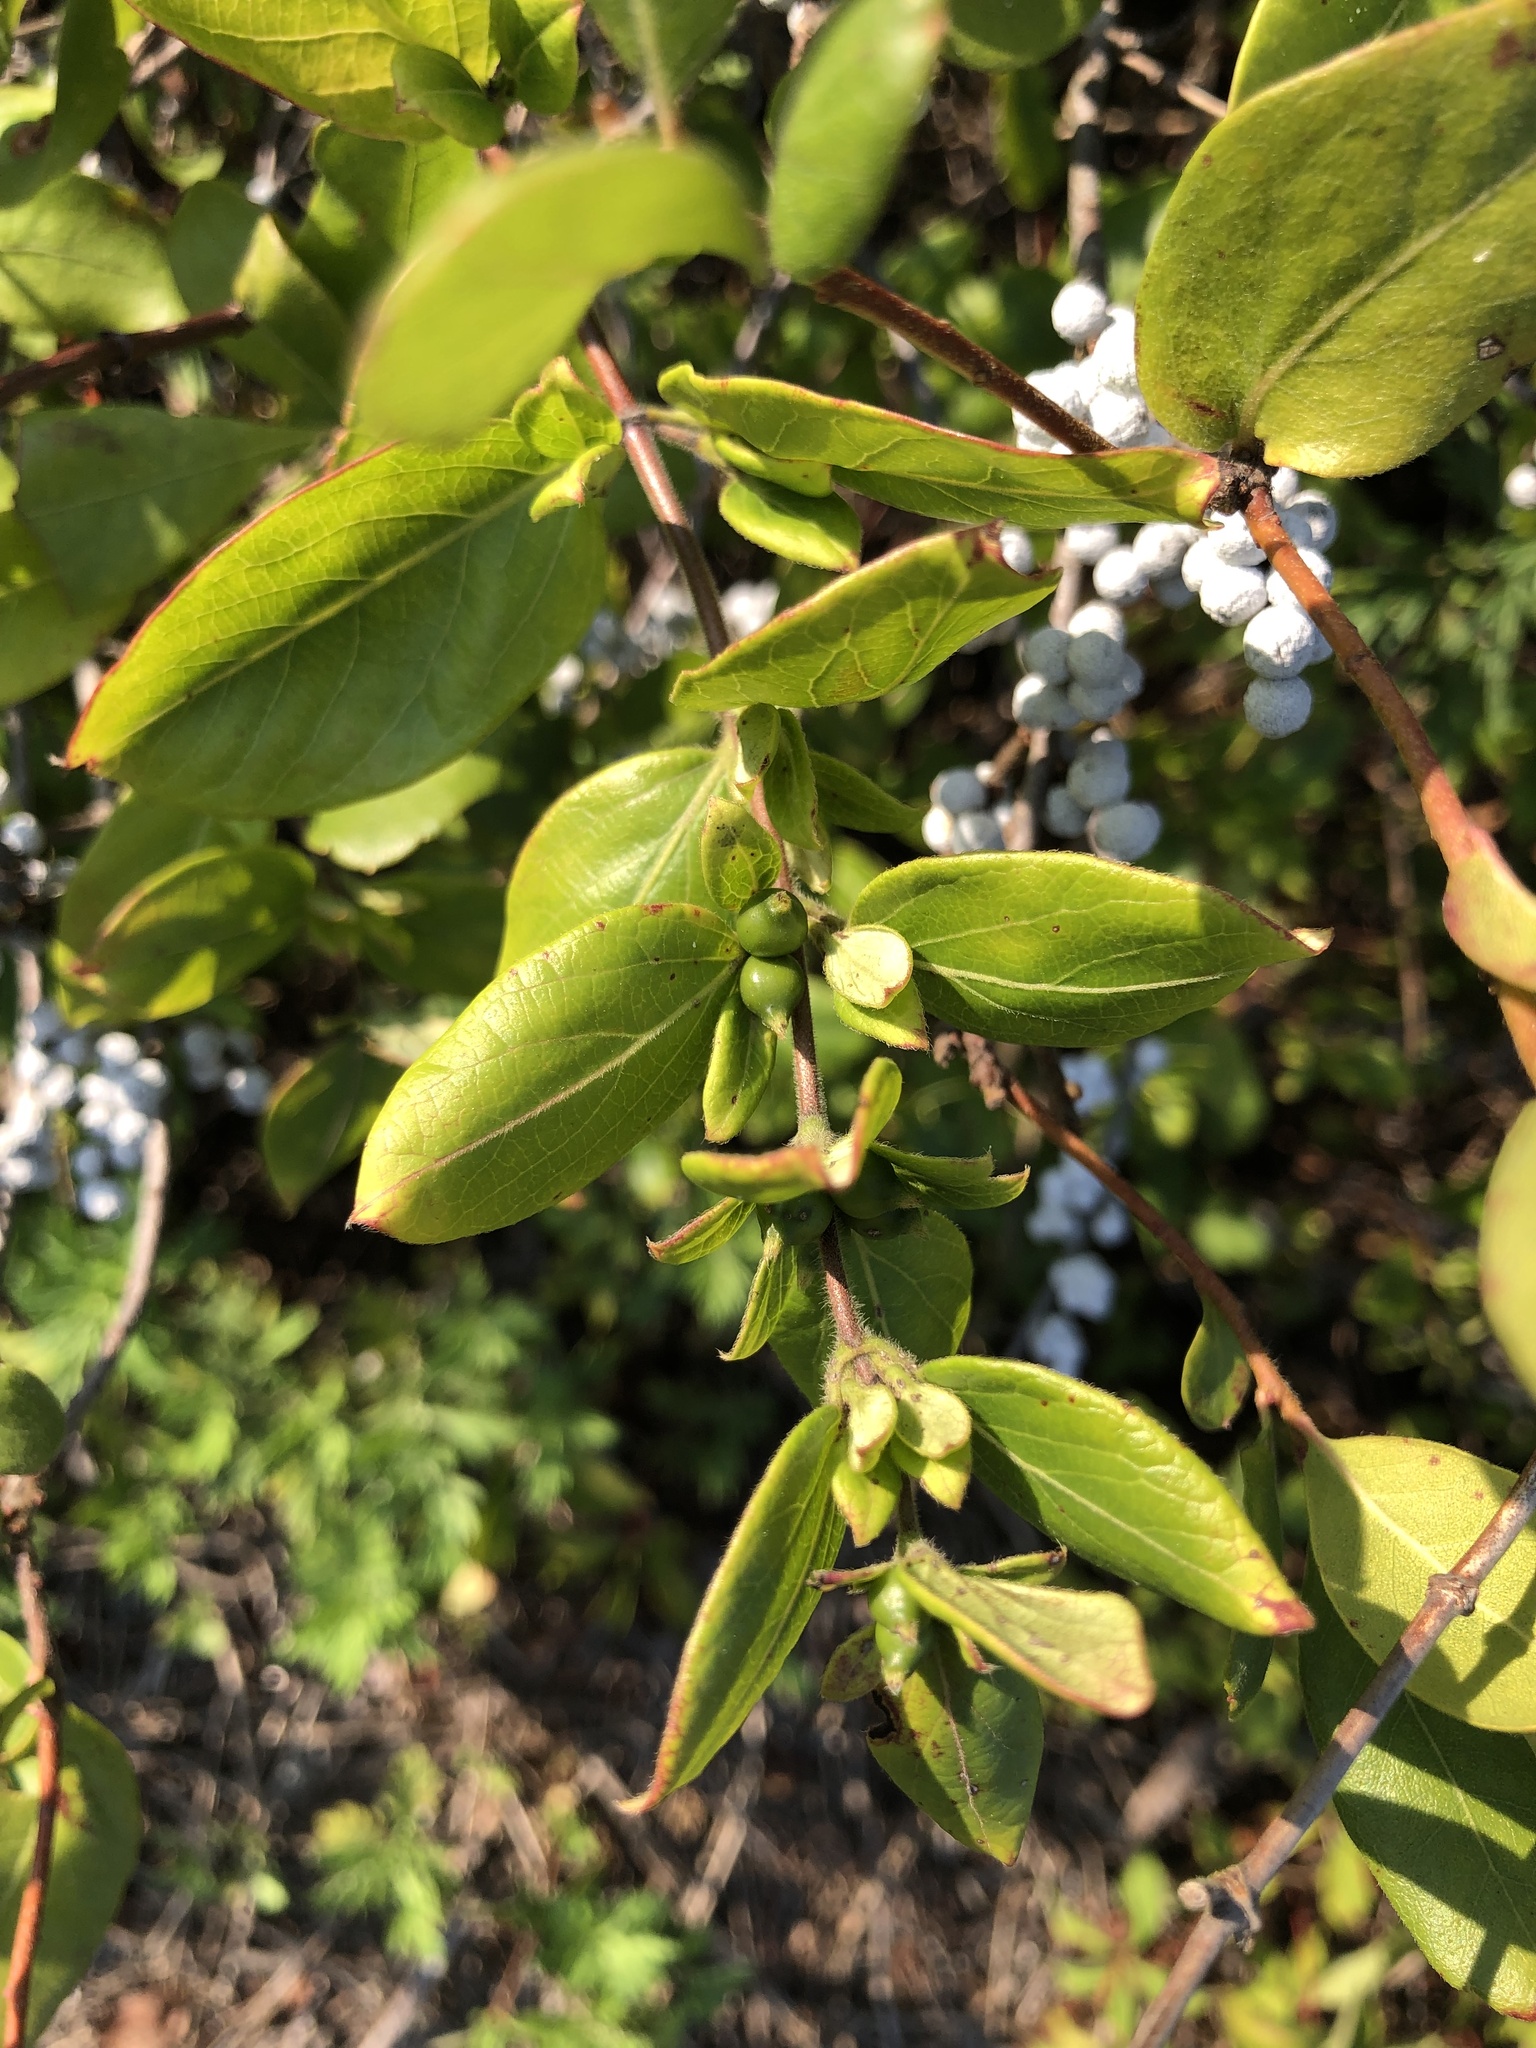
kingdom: Plantae
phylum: Tracheophyta
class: Magnoliopsida
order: Fagales
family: Myricaceae
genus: Morella
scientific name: Morella pensylvanica
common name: Northern bayberry
